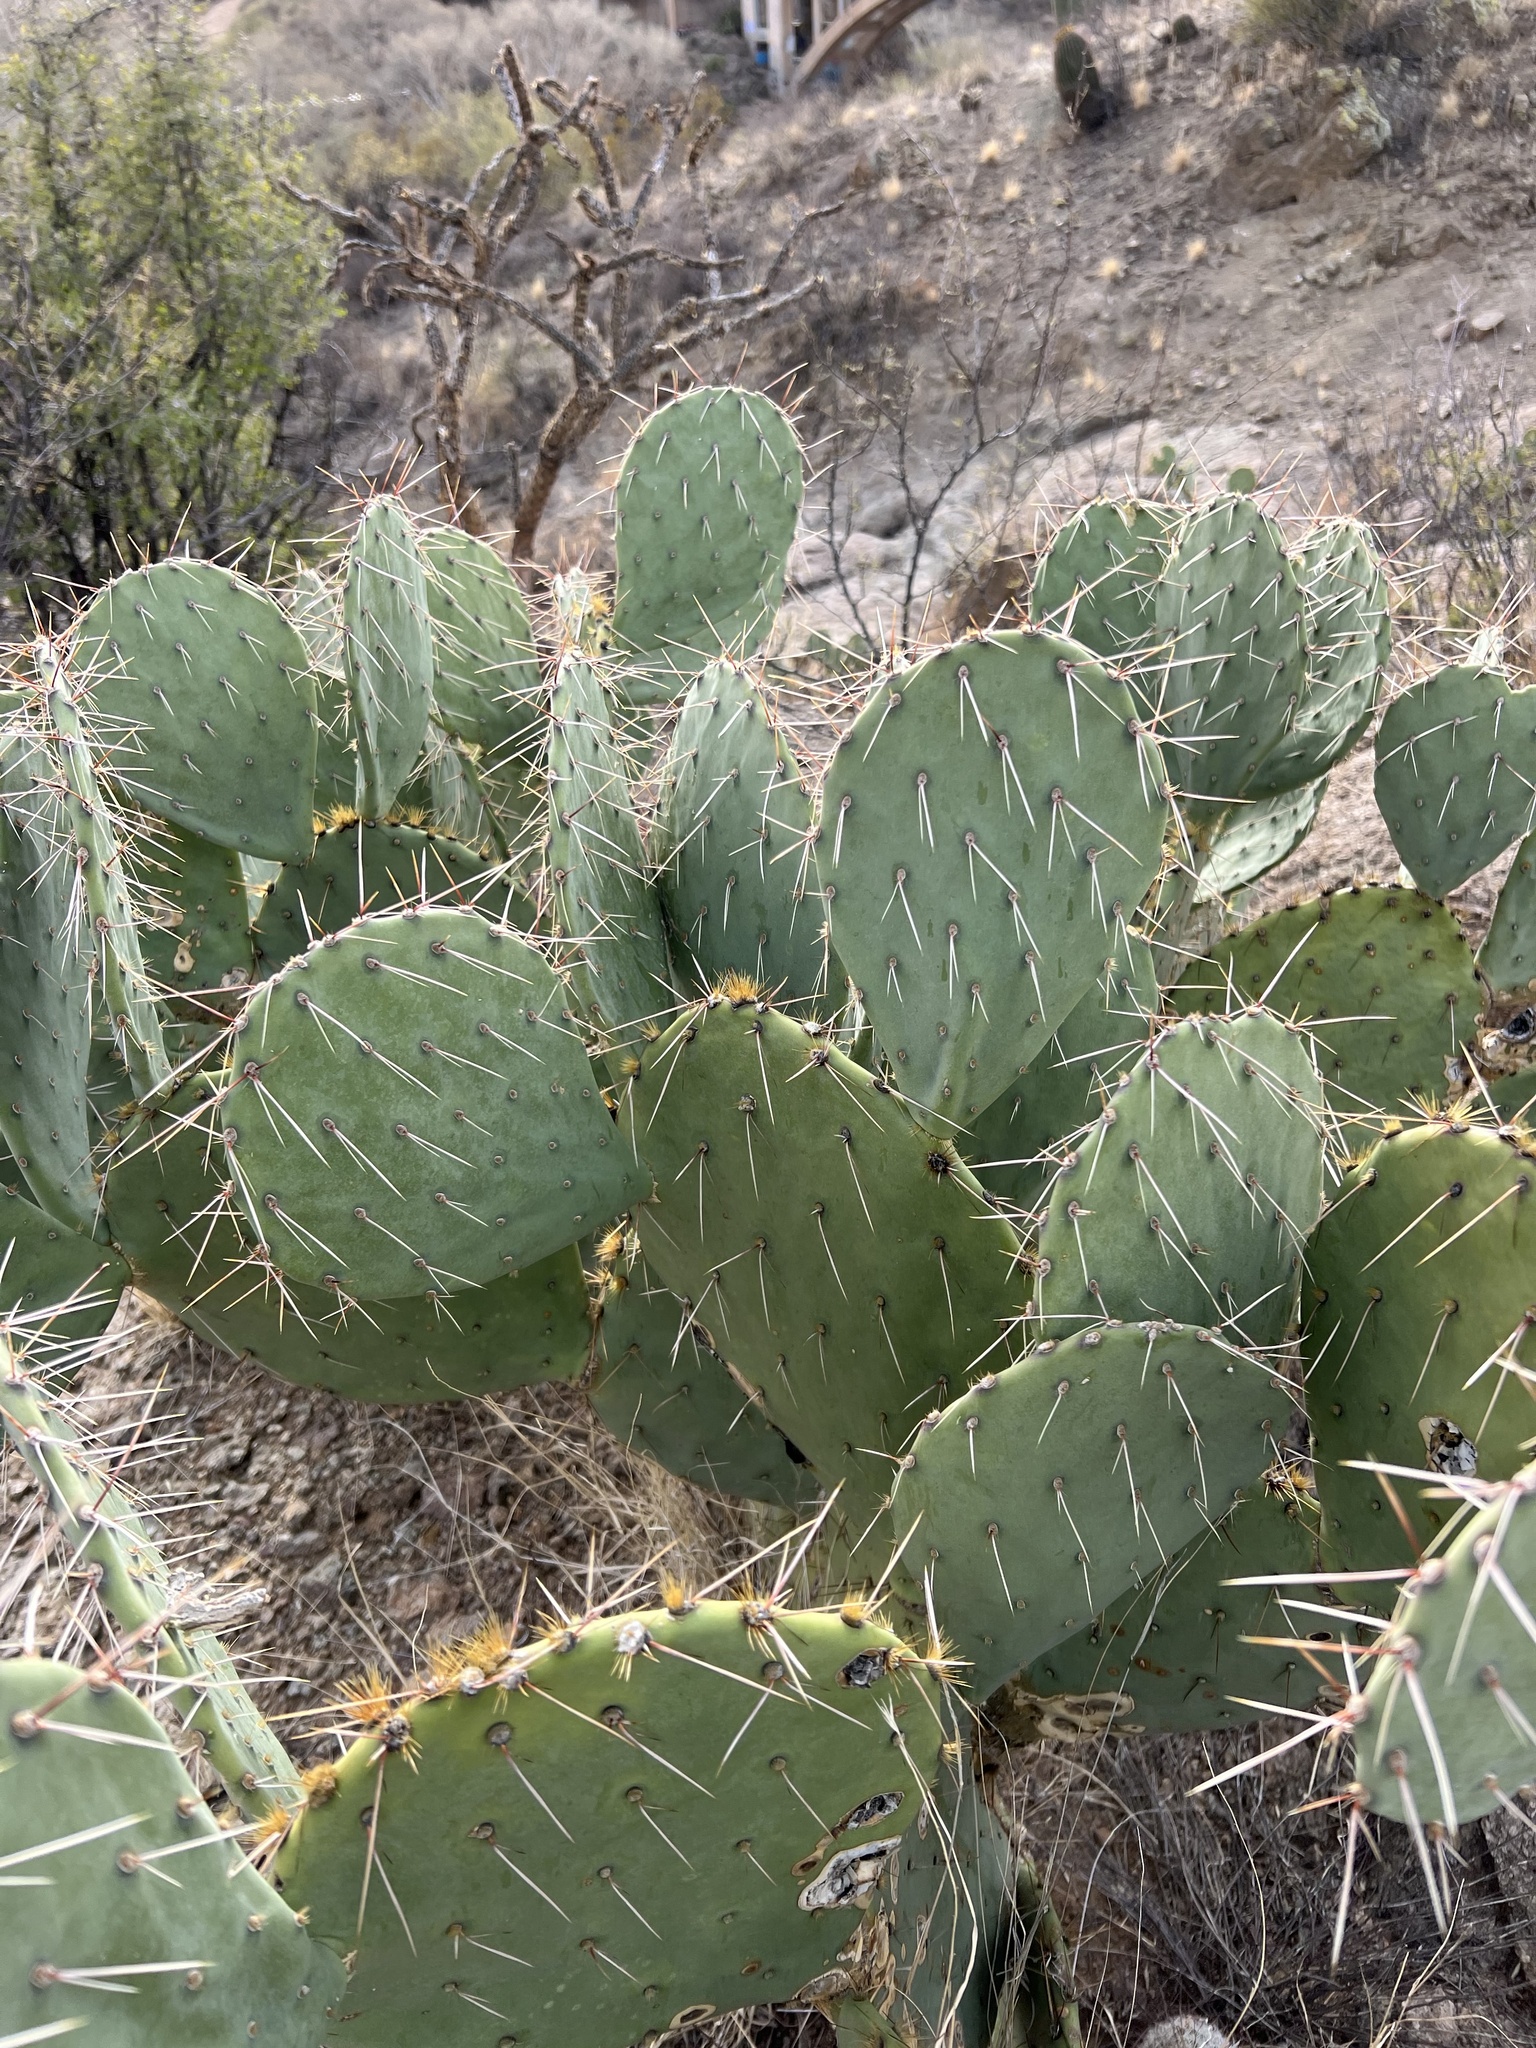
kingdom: Plantae
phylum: Tracheophyta
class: Magnoliopsida
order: Caryophyllales
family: Cactaceae
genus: Opuntia
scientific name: Opuntia engelmannii
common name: Cactus-apple
